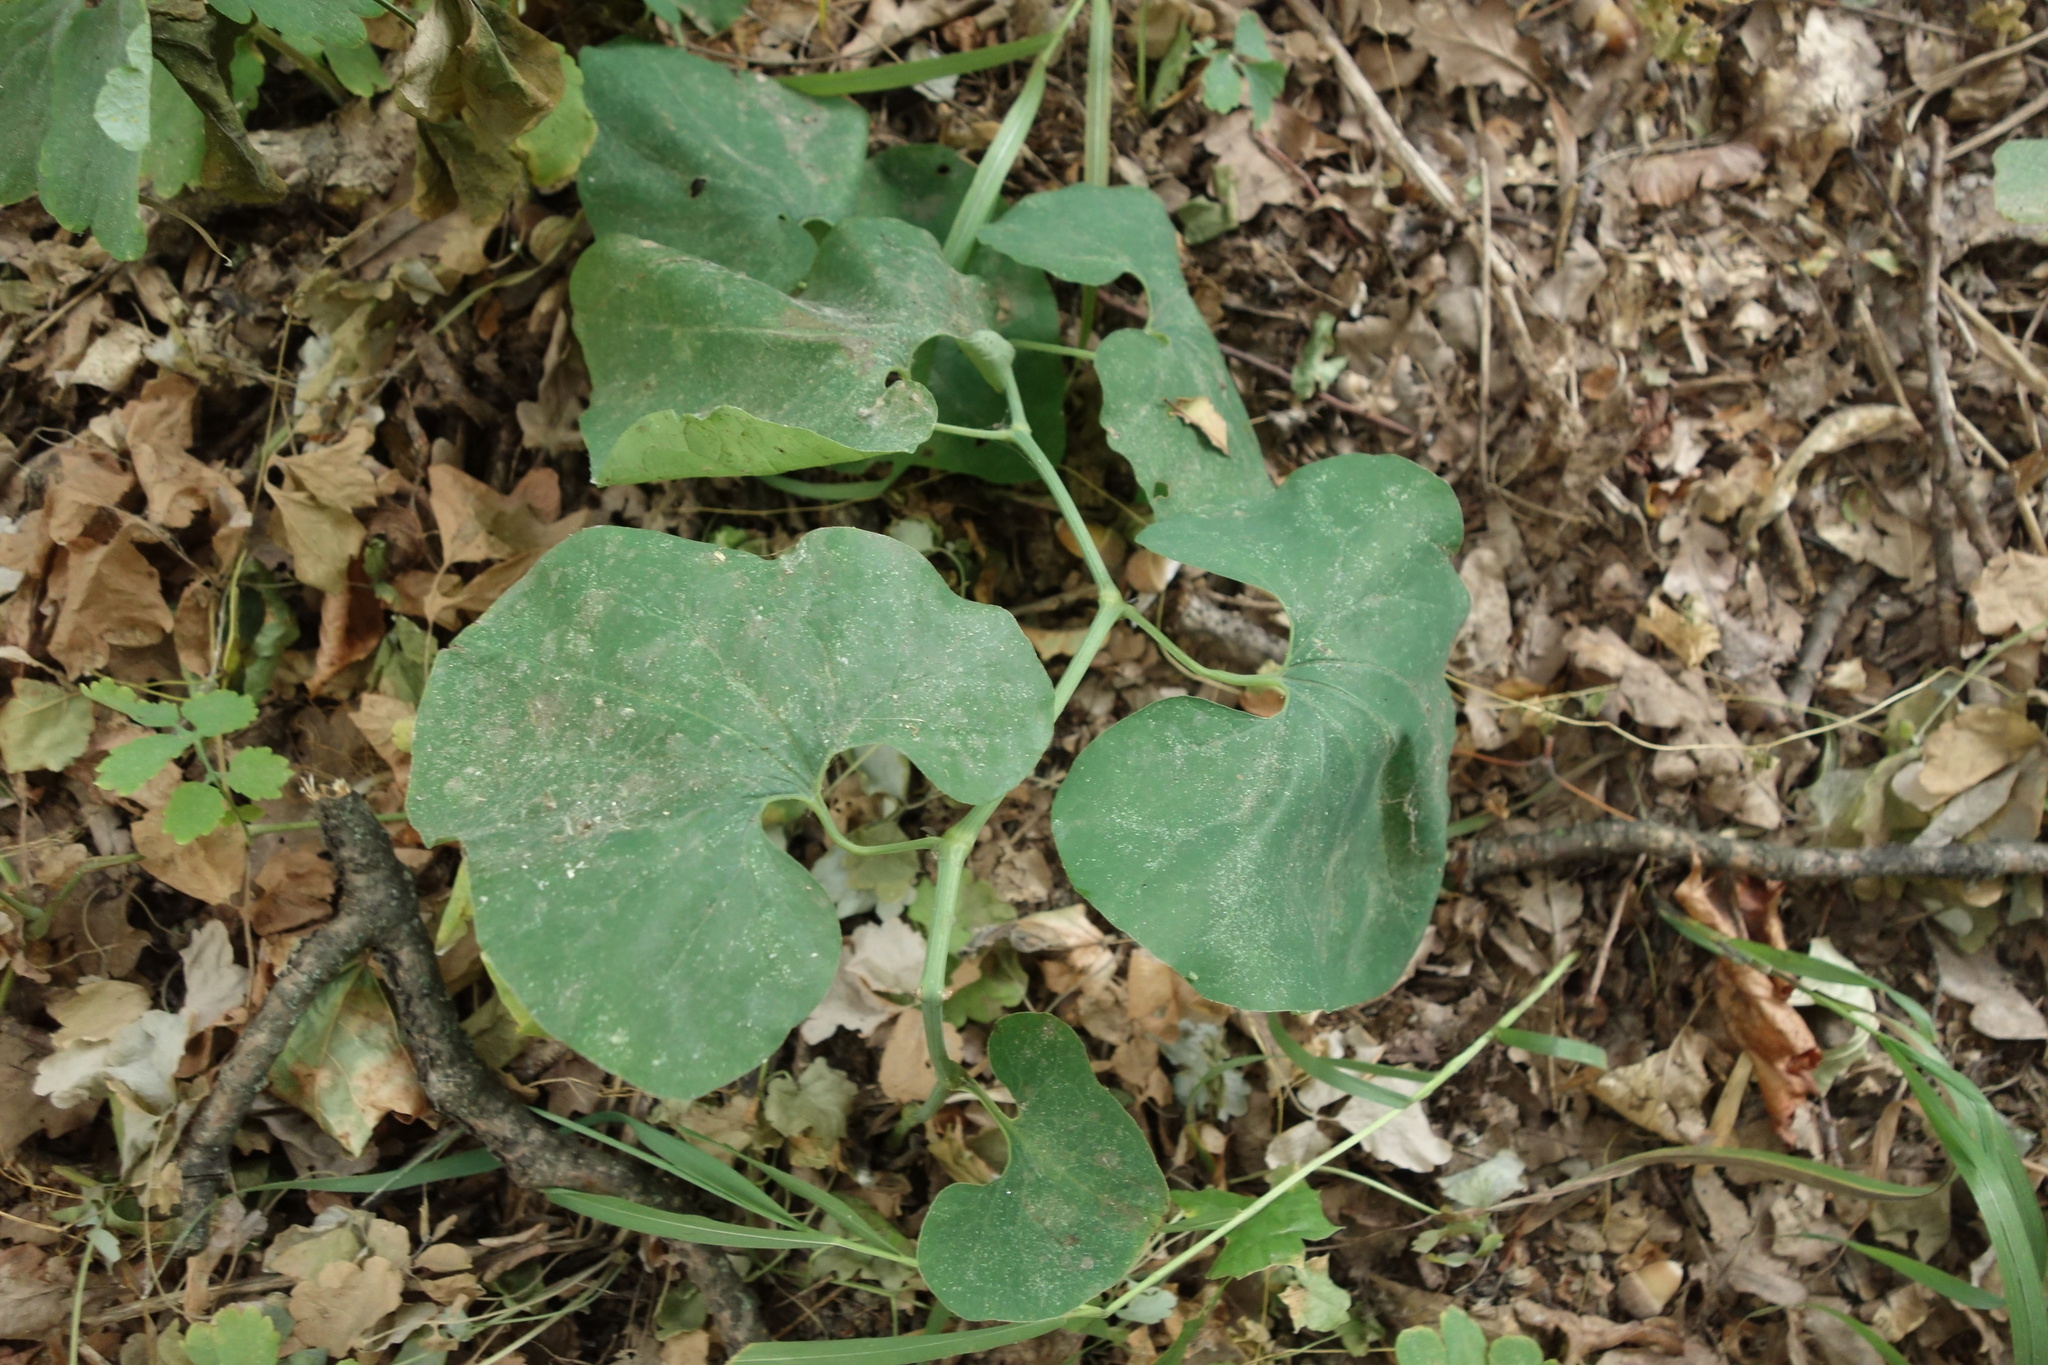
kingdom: Plantae
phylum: Tracheophyta
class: Magnoliopsida
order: Piperales
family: Aristolochiaceae
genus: Aristolochia
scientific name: Aristolochia clematitis
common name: Birthwort
